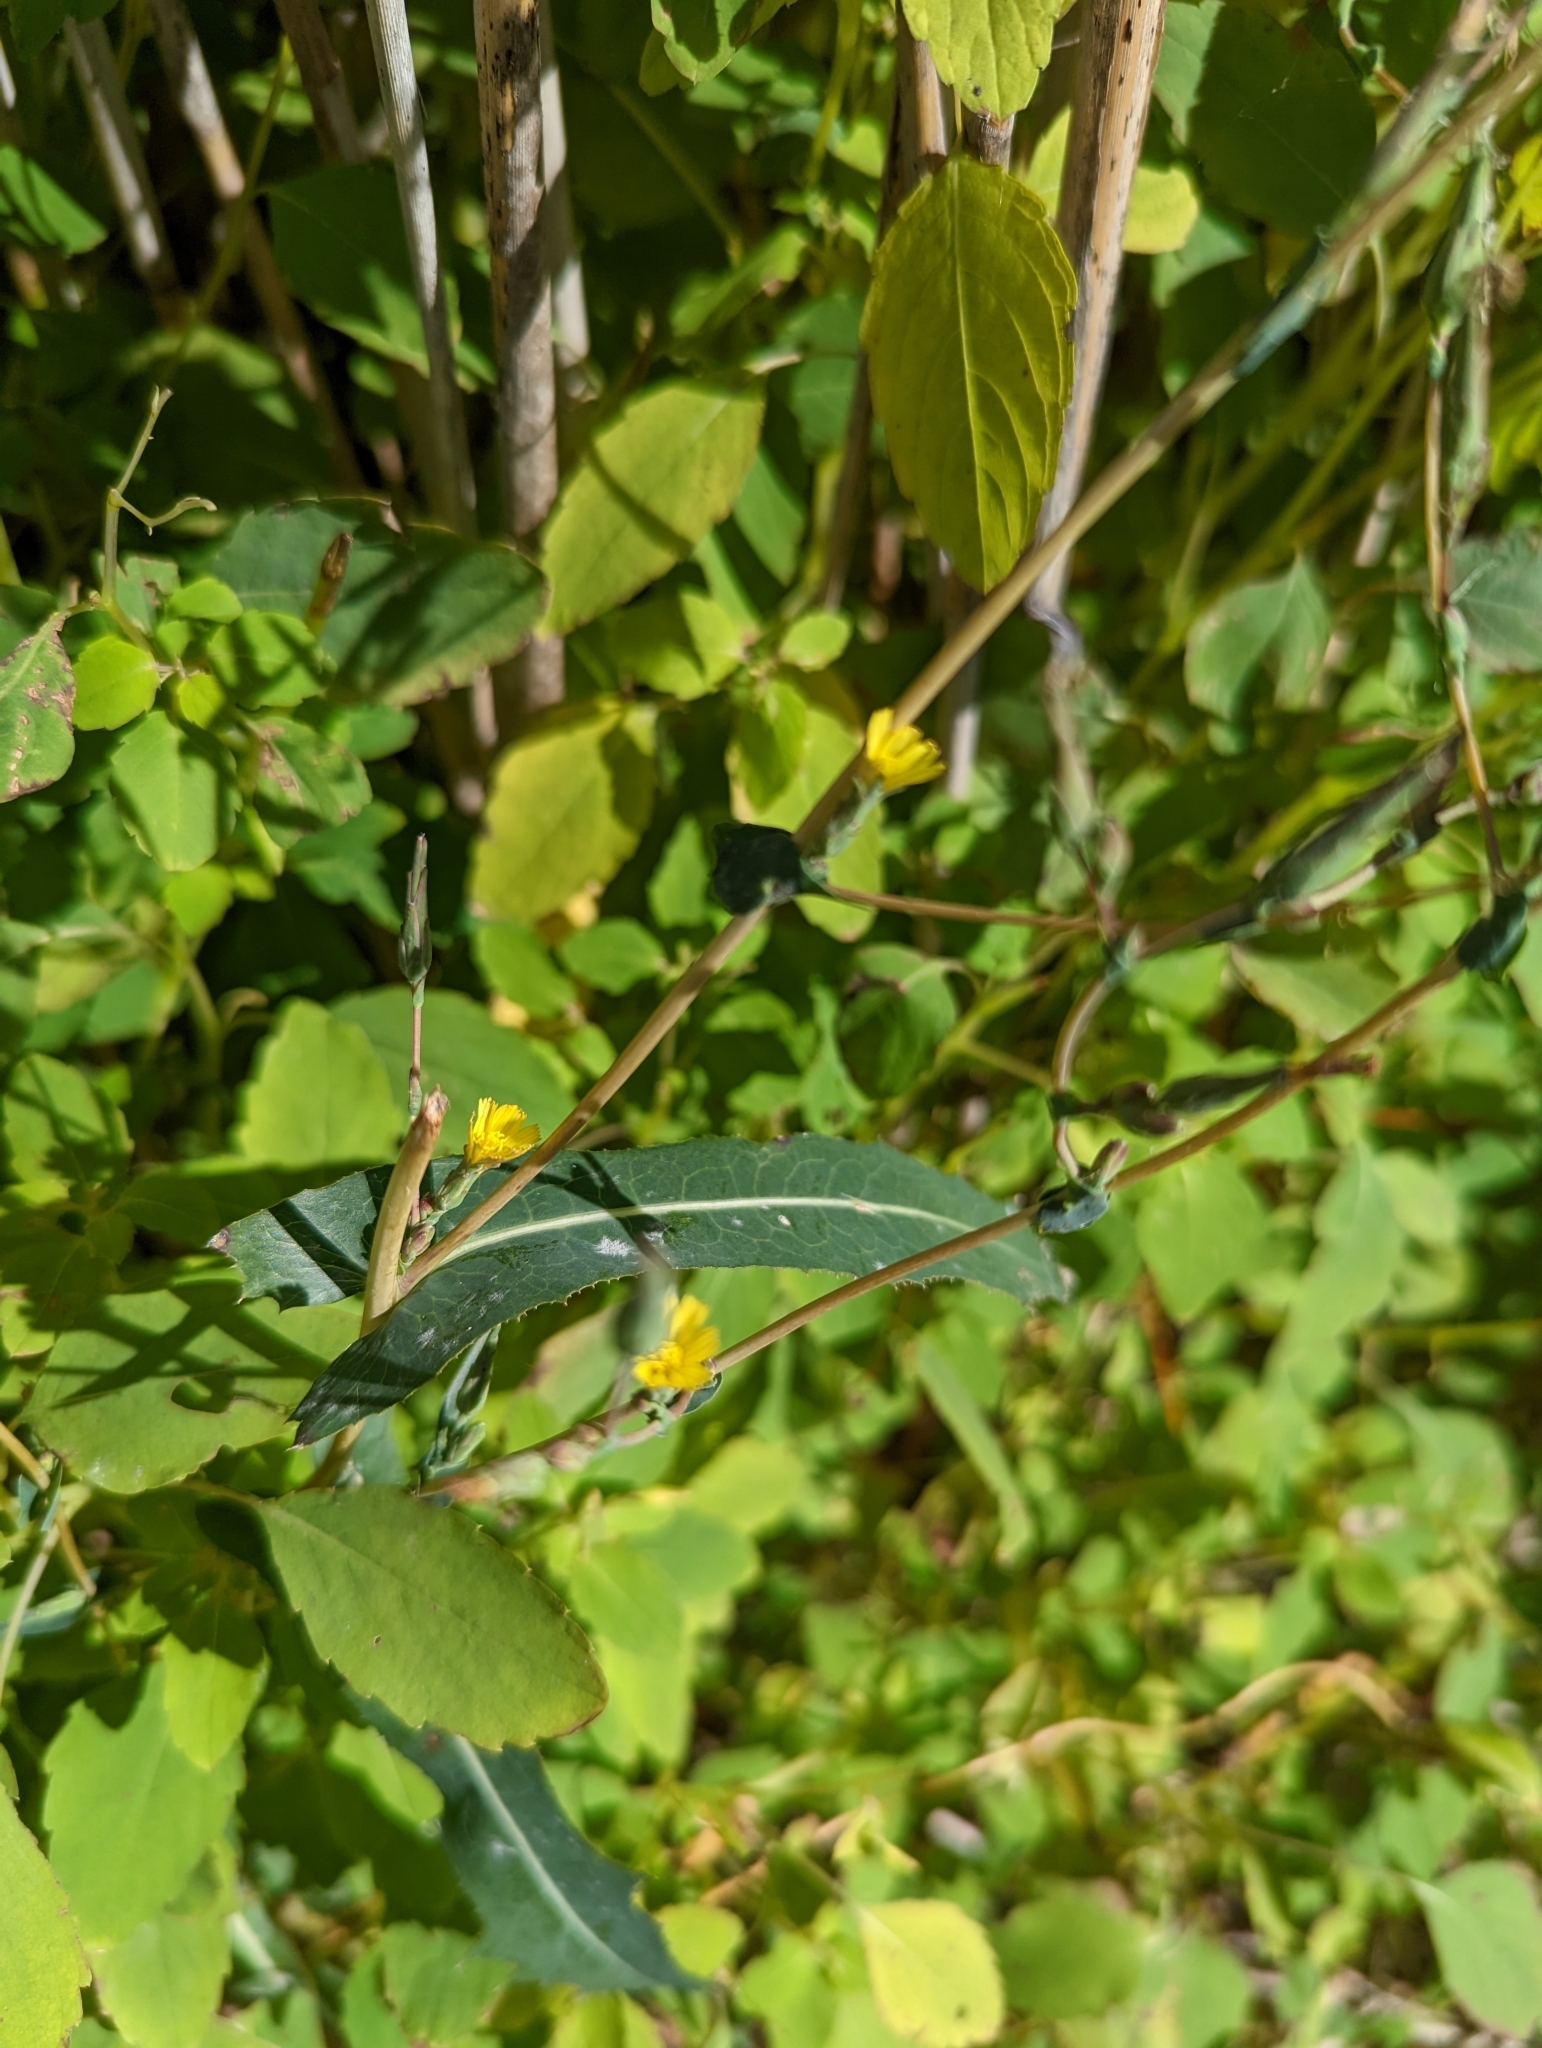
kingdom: Plantae
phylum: Tracheophyta
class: Magnoliopsida
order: Asterales
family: Asteraceae
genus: Lactuca
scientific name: Lactuca serriola
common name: Prickly lettuce
